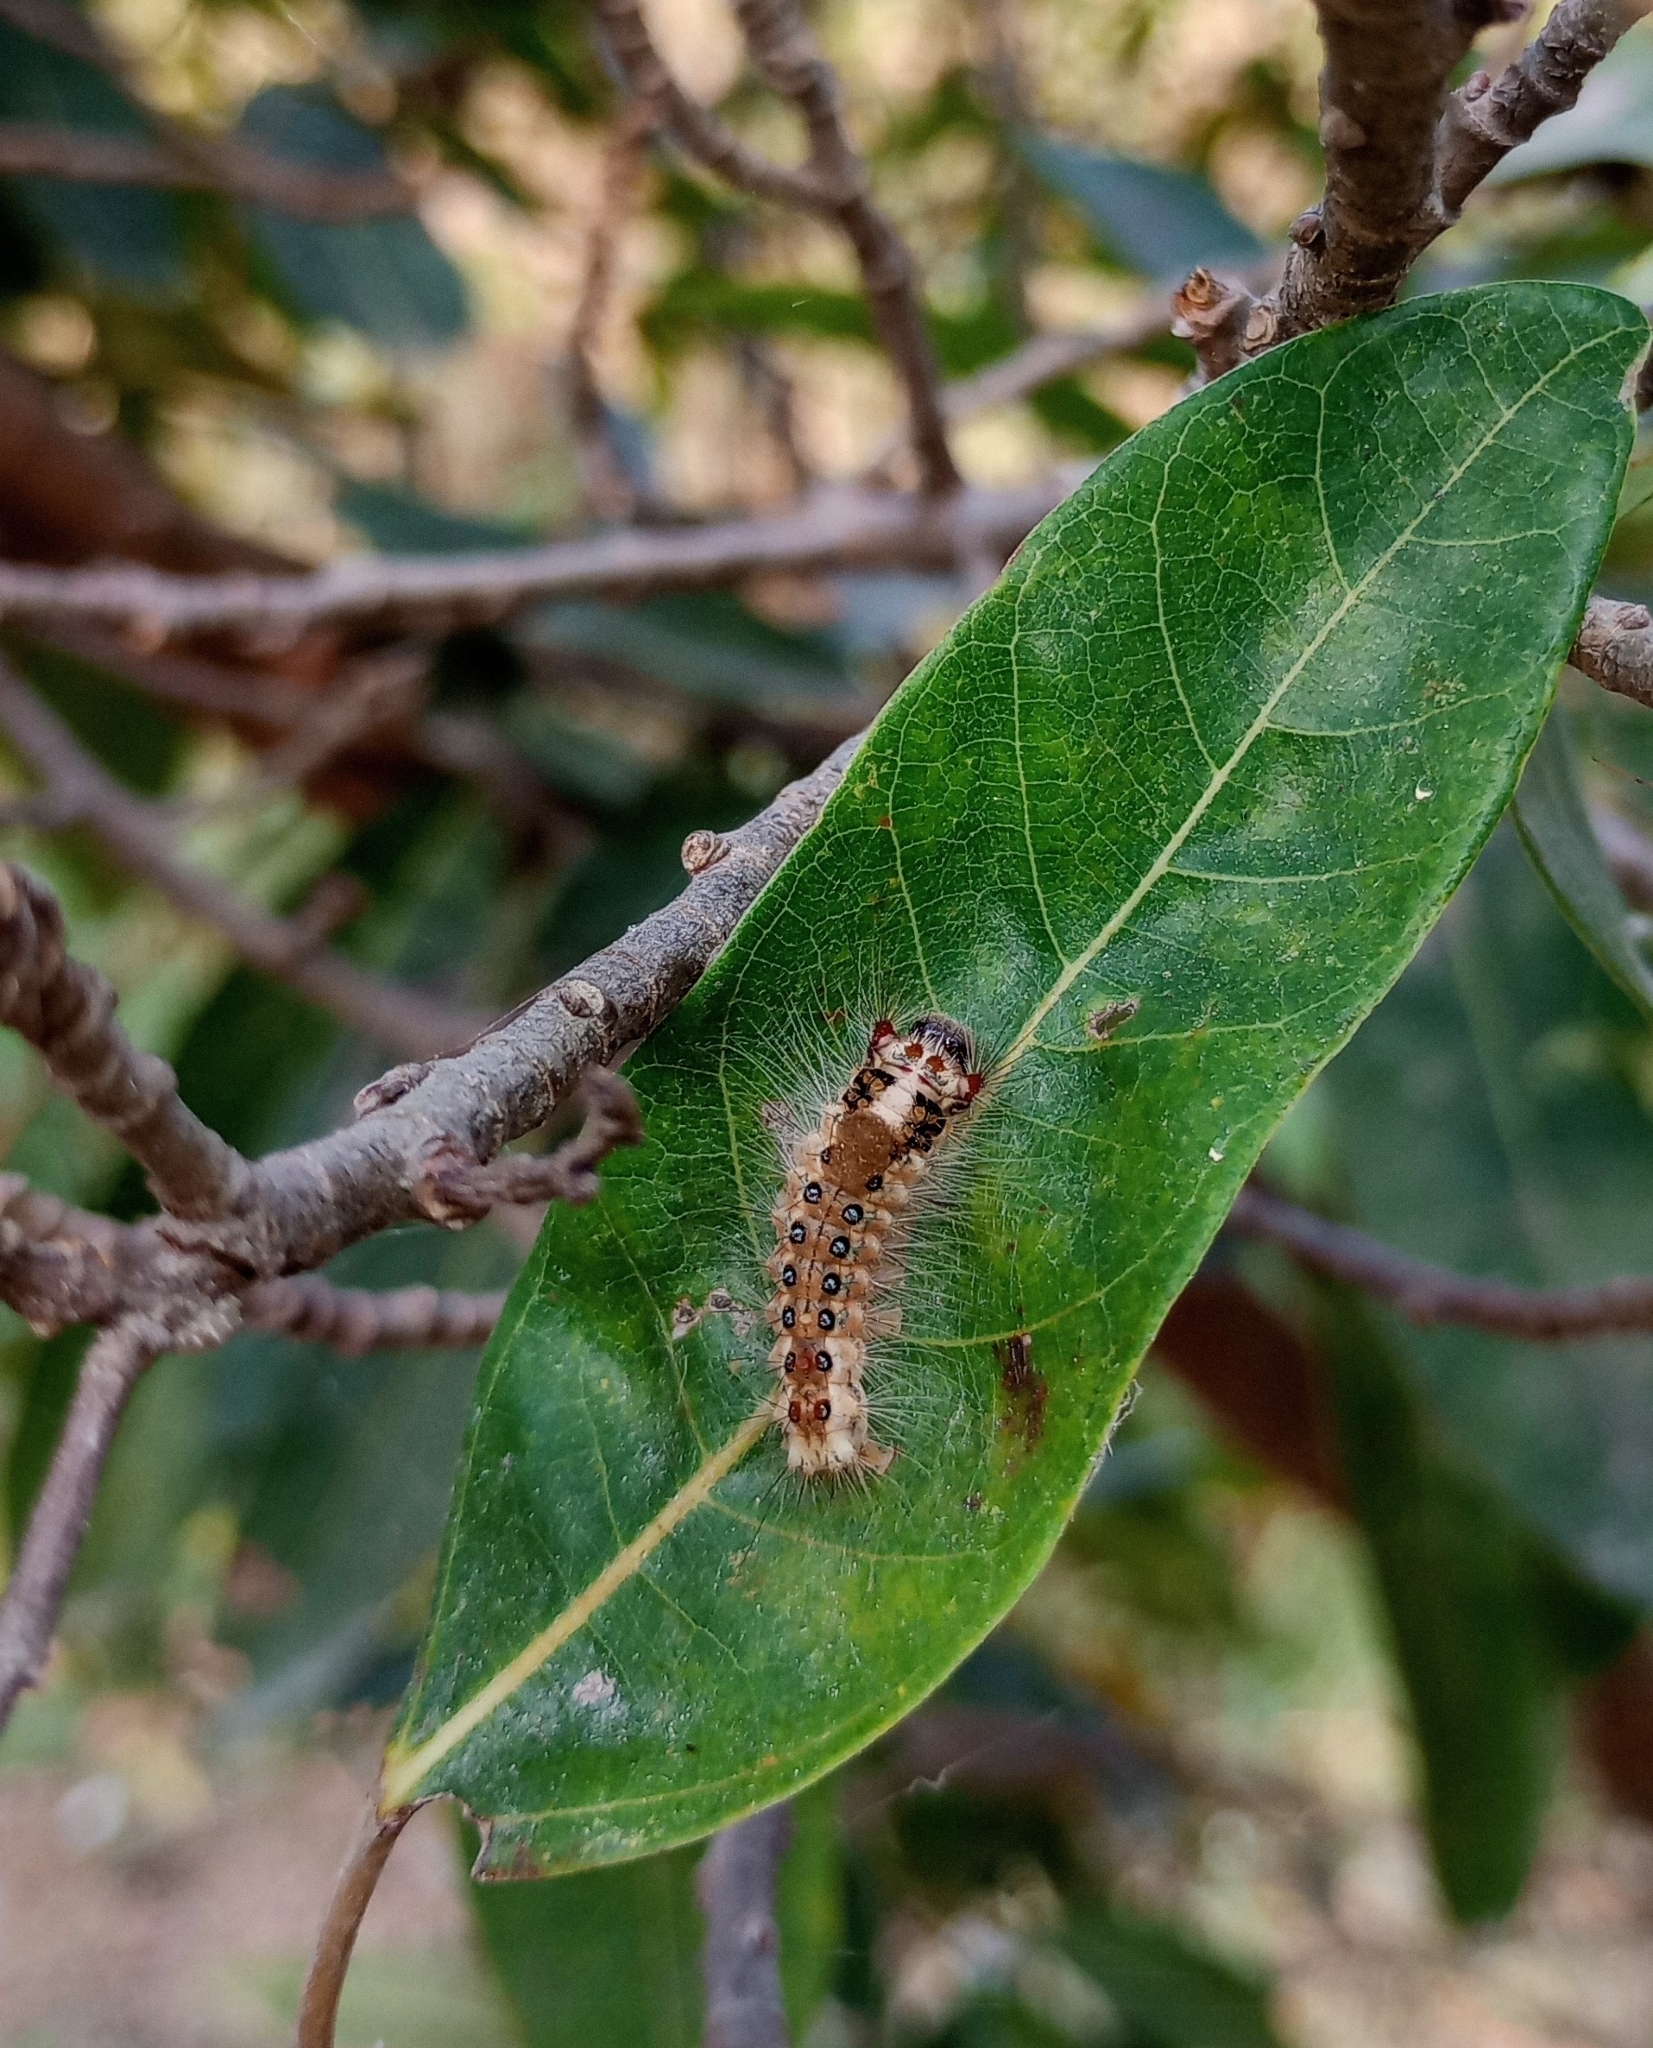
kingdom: Animalia
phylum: Arthropoda
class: Insecta
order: Lepidoptera
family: Erebidae
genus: Perina
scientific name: Perina nuda
